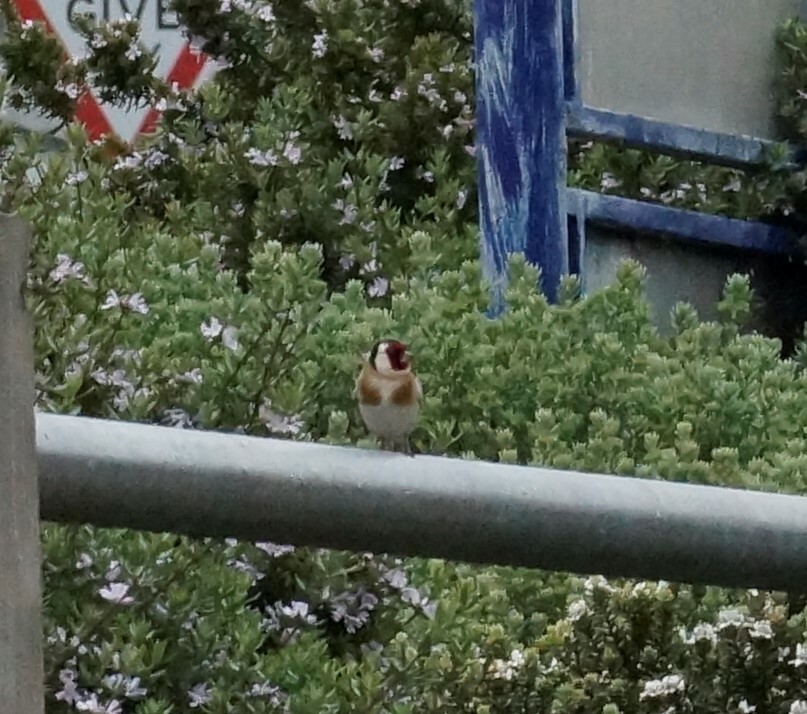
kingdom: Animalia
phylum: Chordata
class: Aves
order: Passeriformes
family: Fringillidae
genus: Carduelis
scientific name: Carduelis carduelis
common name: European goldfinch
